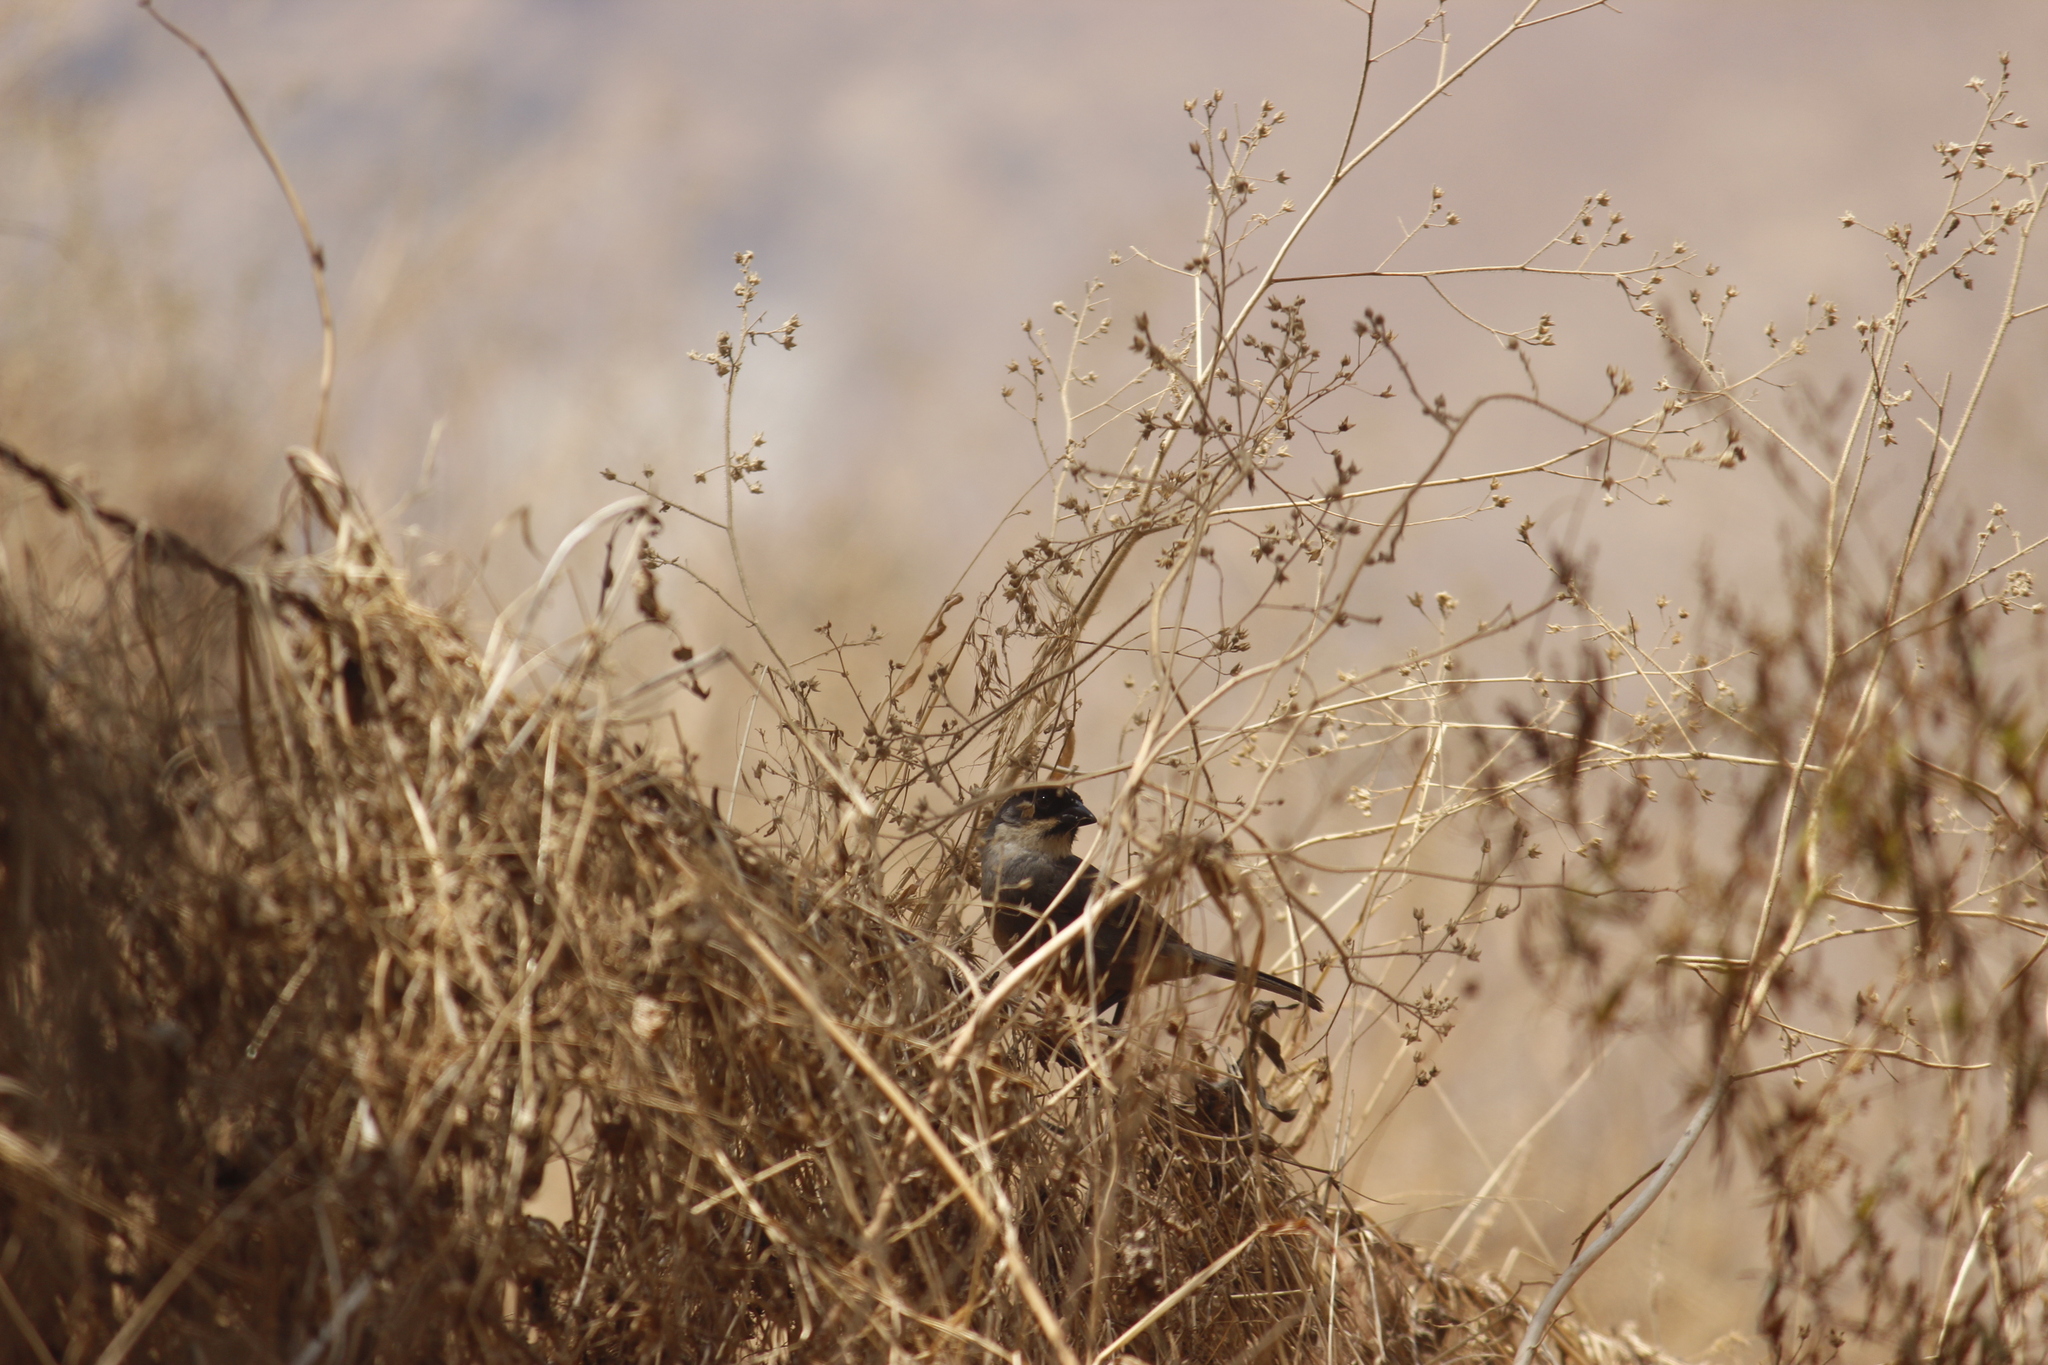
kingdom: Animalia
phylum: Chordata
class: Aves
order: Passeriformes
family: Passerellidae
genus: Atlapetes
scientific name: Atlapetes nationi
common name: Rusty-bellied brushfinch
